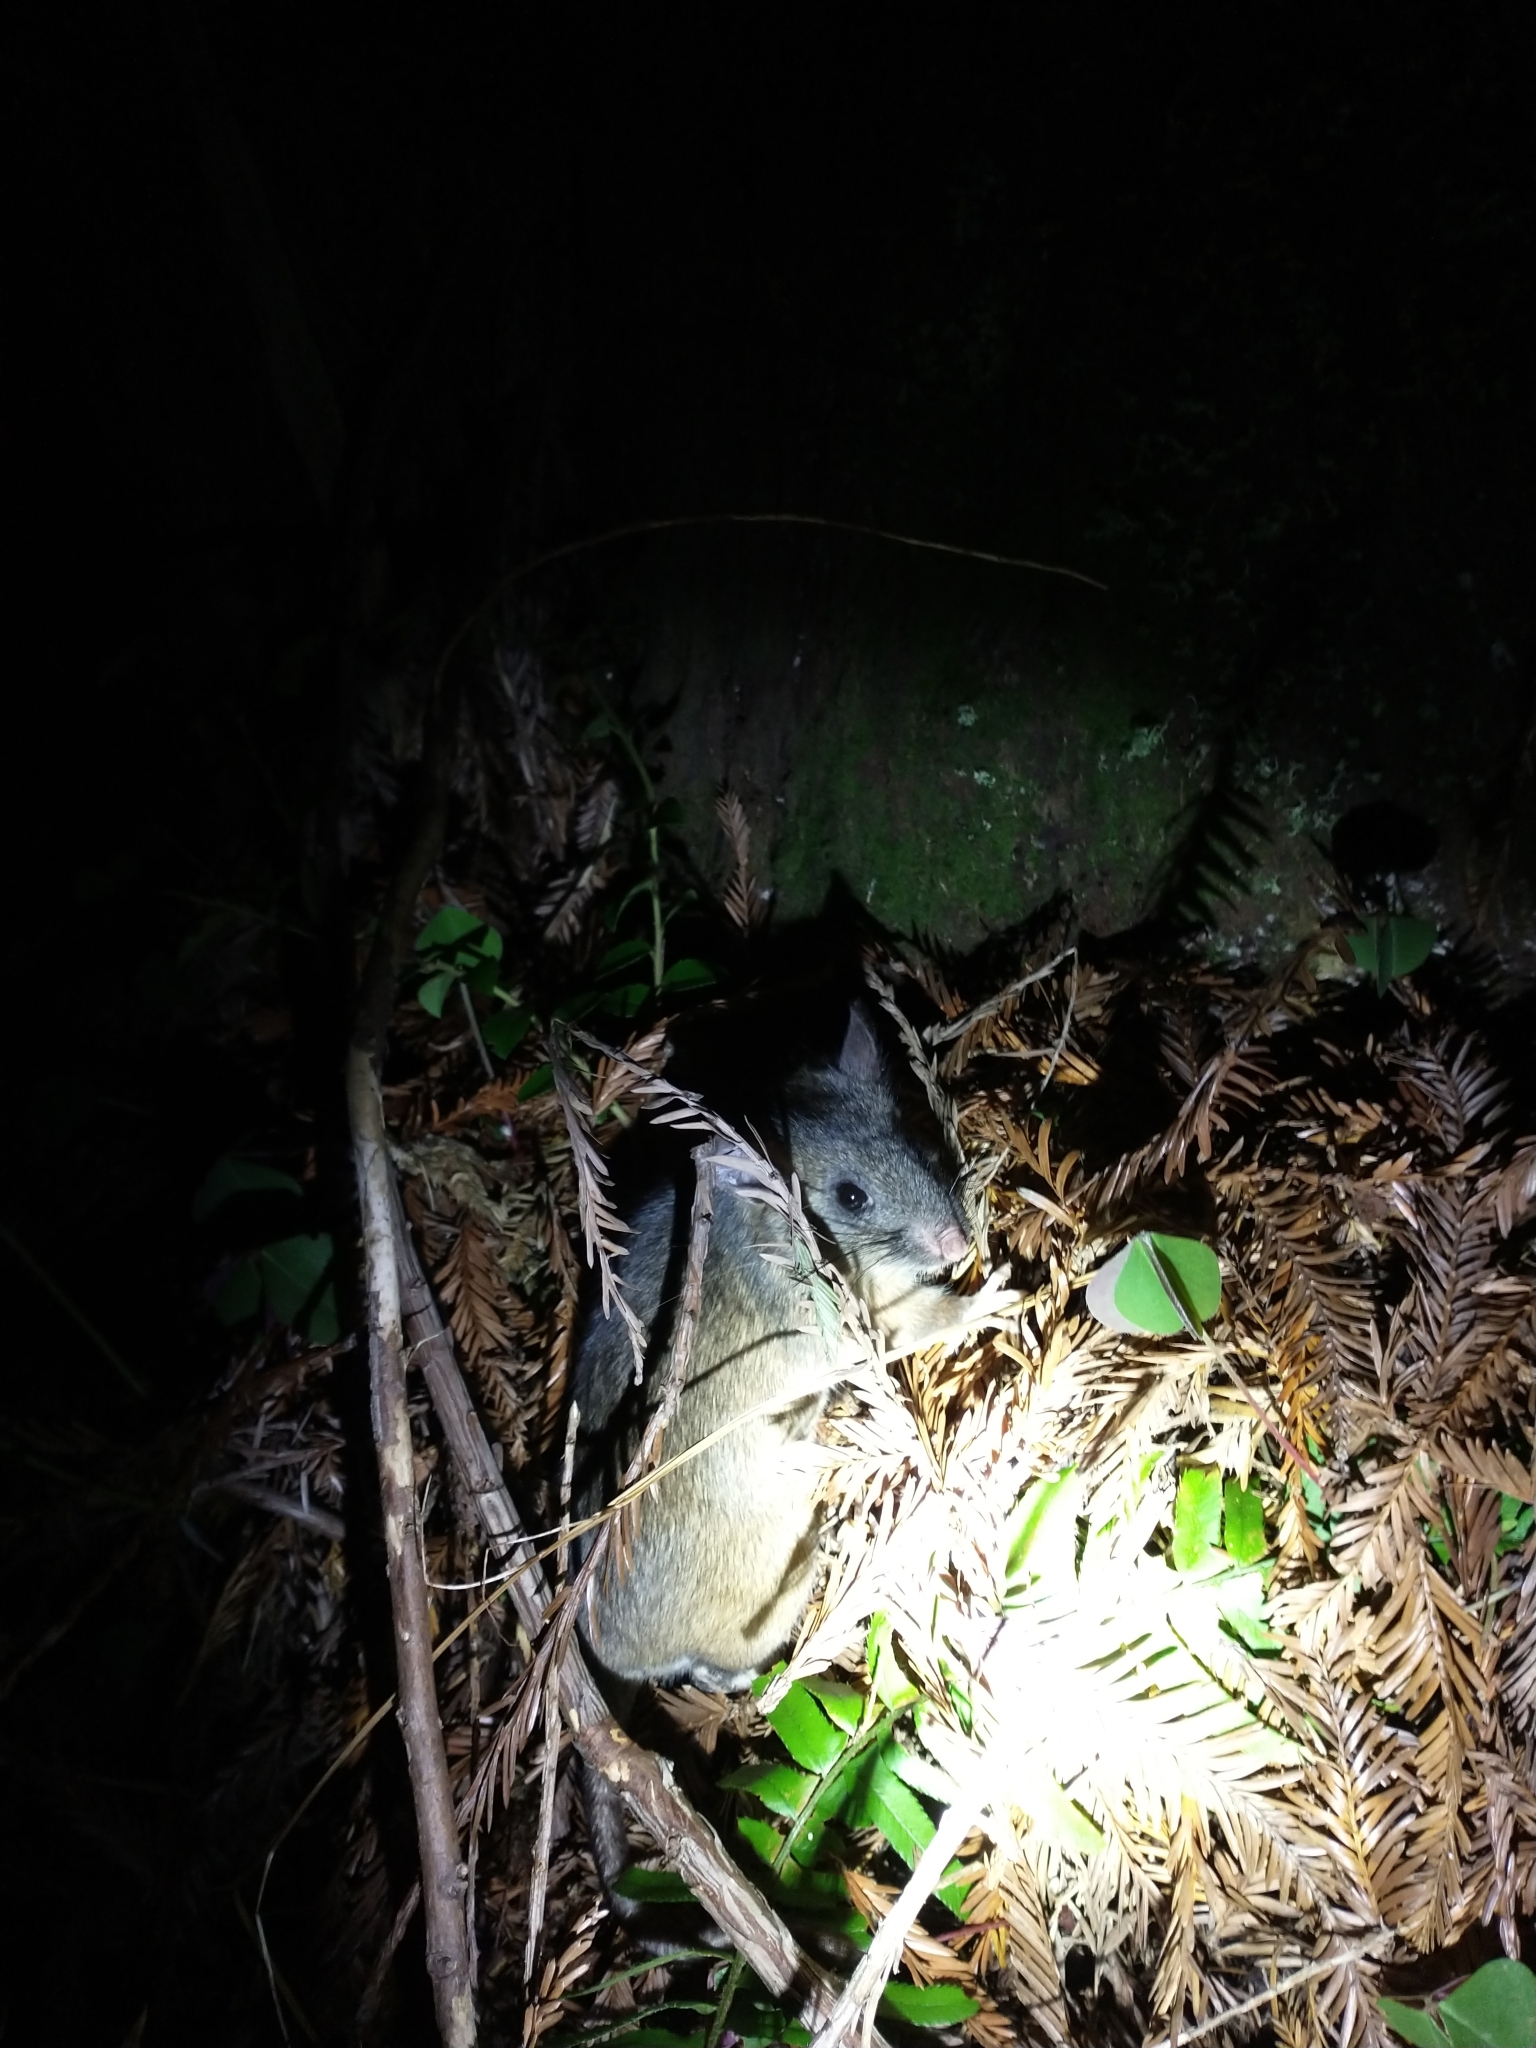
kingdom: Animalia
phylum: Chordata
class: Mammalia
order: Rodentia
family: Cricetidae
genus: Neotoma
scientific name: Neotoma fuscipes
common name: Dusky-footed woodrat
